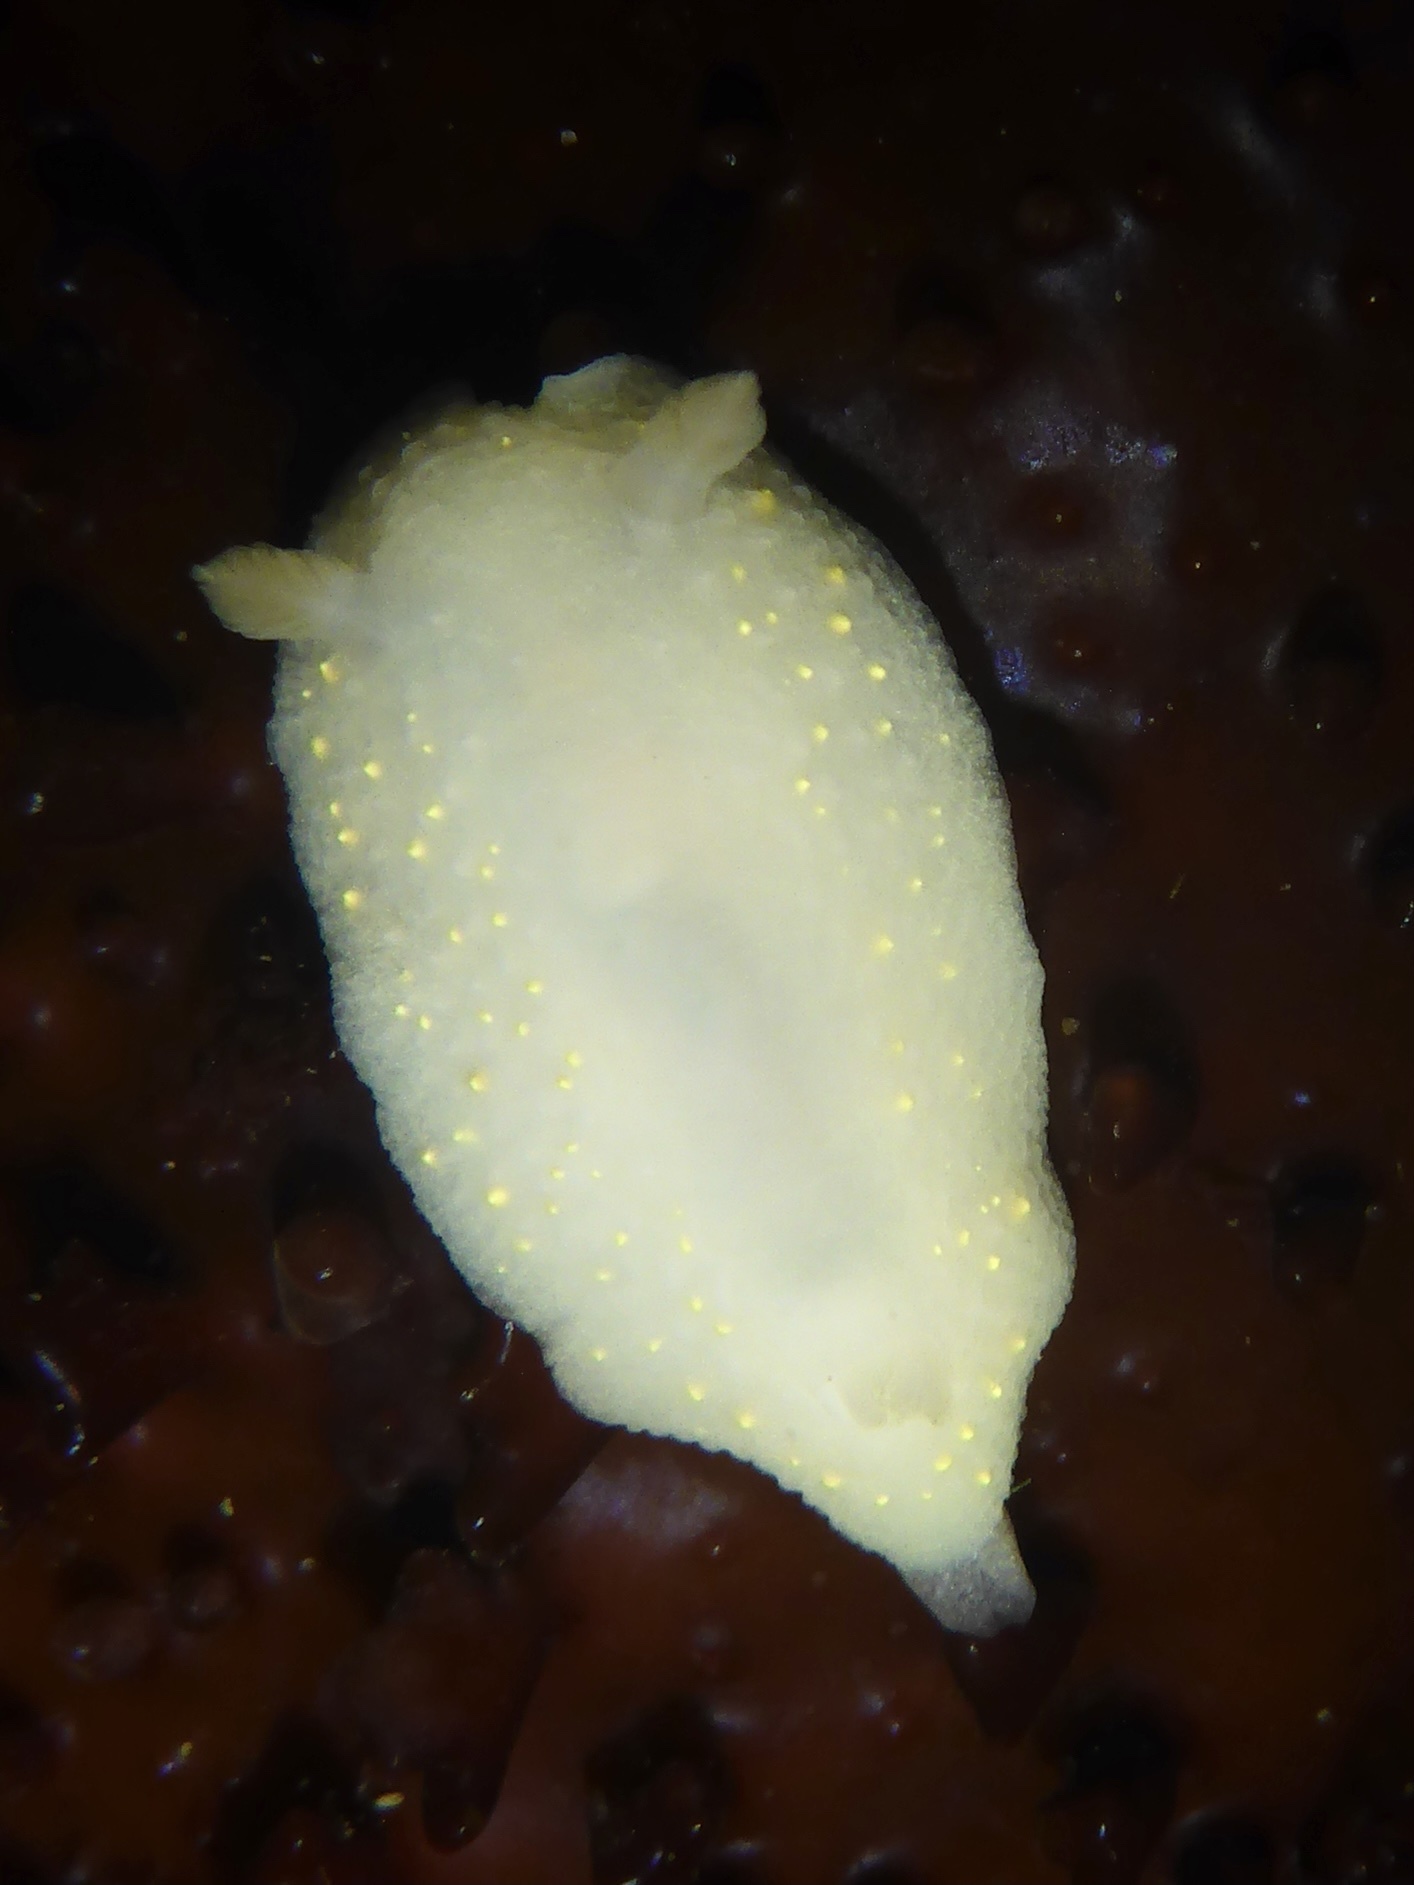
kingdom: Animalia
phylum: Mollusca
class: Gastropoda
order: Nudibranchia
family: Cadlinidae
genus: Cadlina
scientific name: Cadlina modesta
